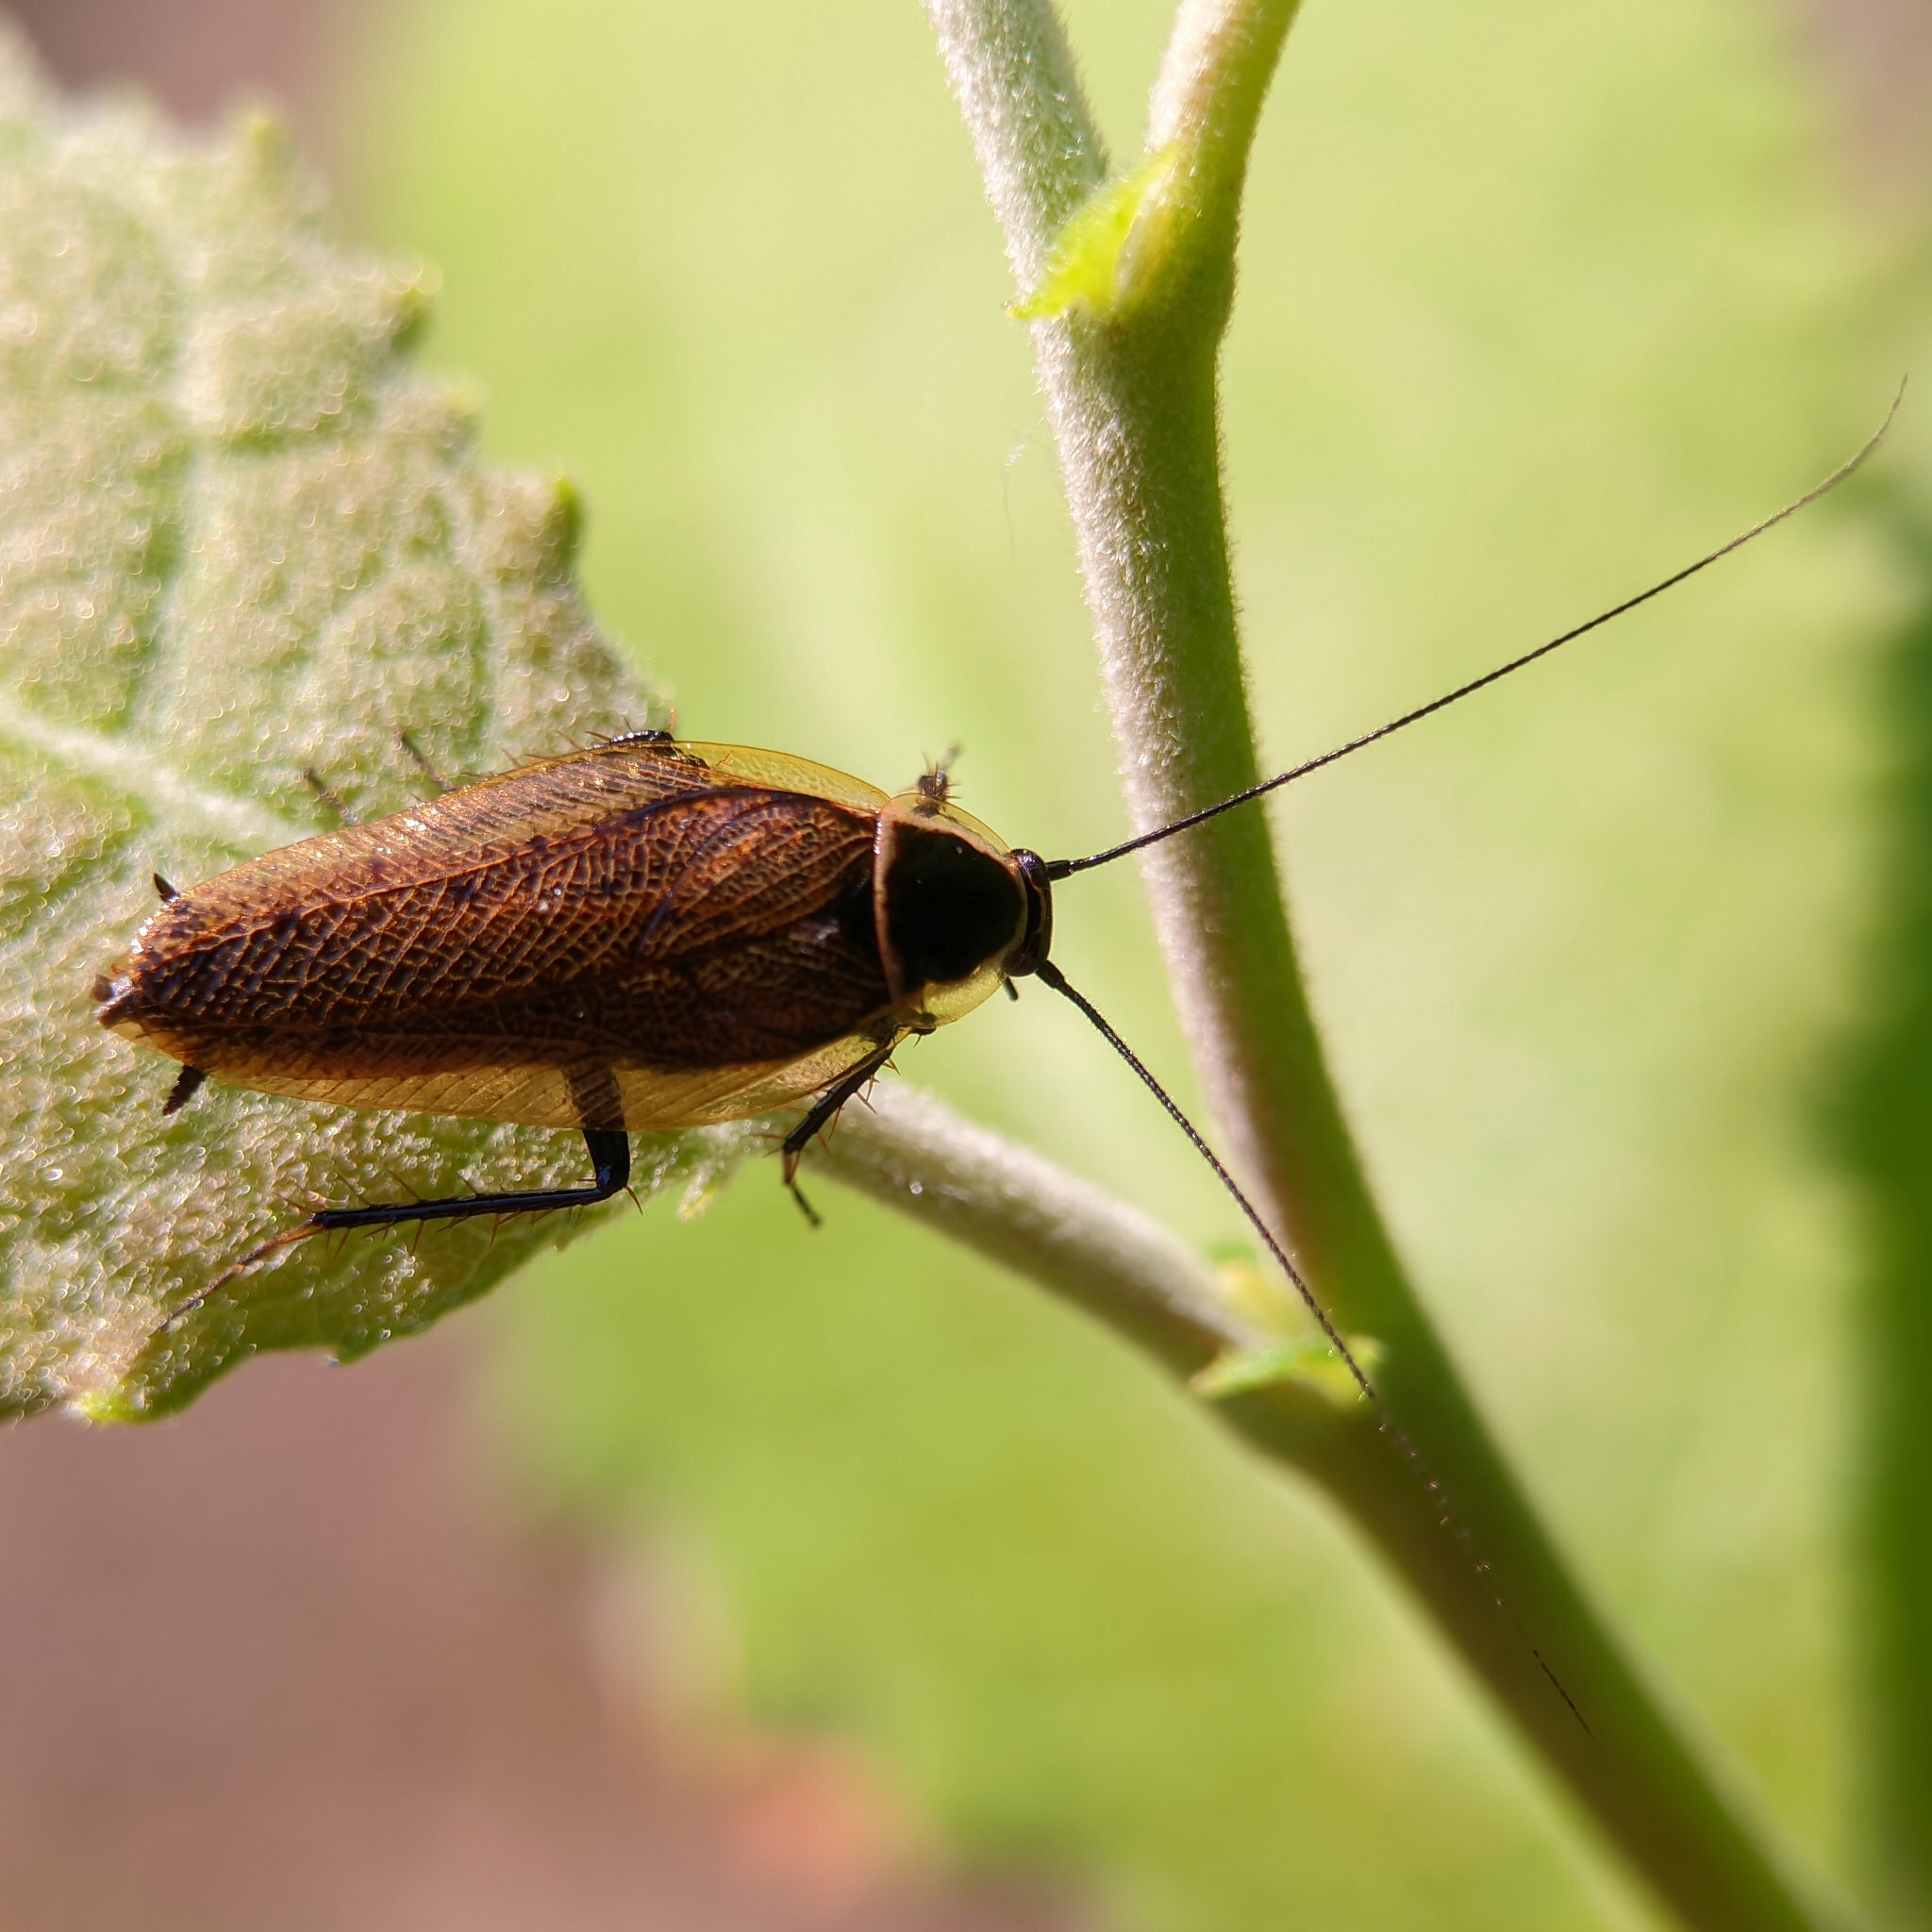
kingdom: Animalia
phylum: Arthropoda
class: Insecta
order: Blattodea
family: Ectobiidae
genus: Ectobius
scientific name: Ectobius sylvestris
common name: Forest cockroach
